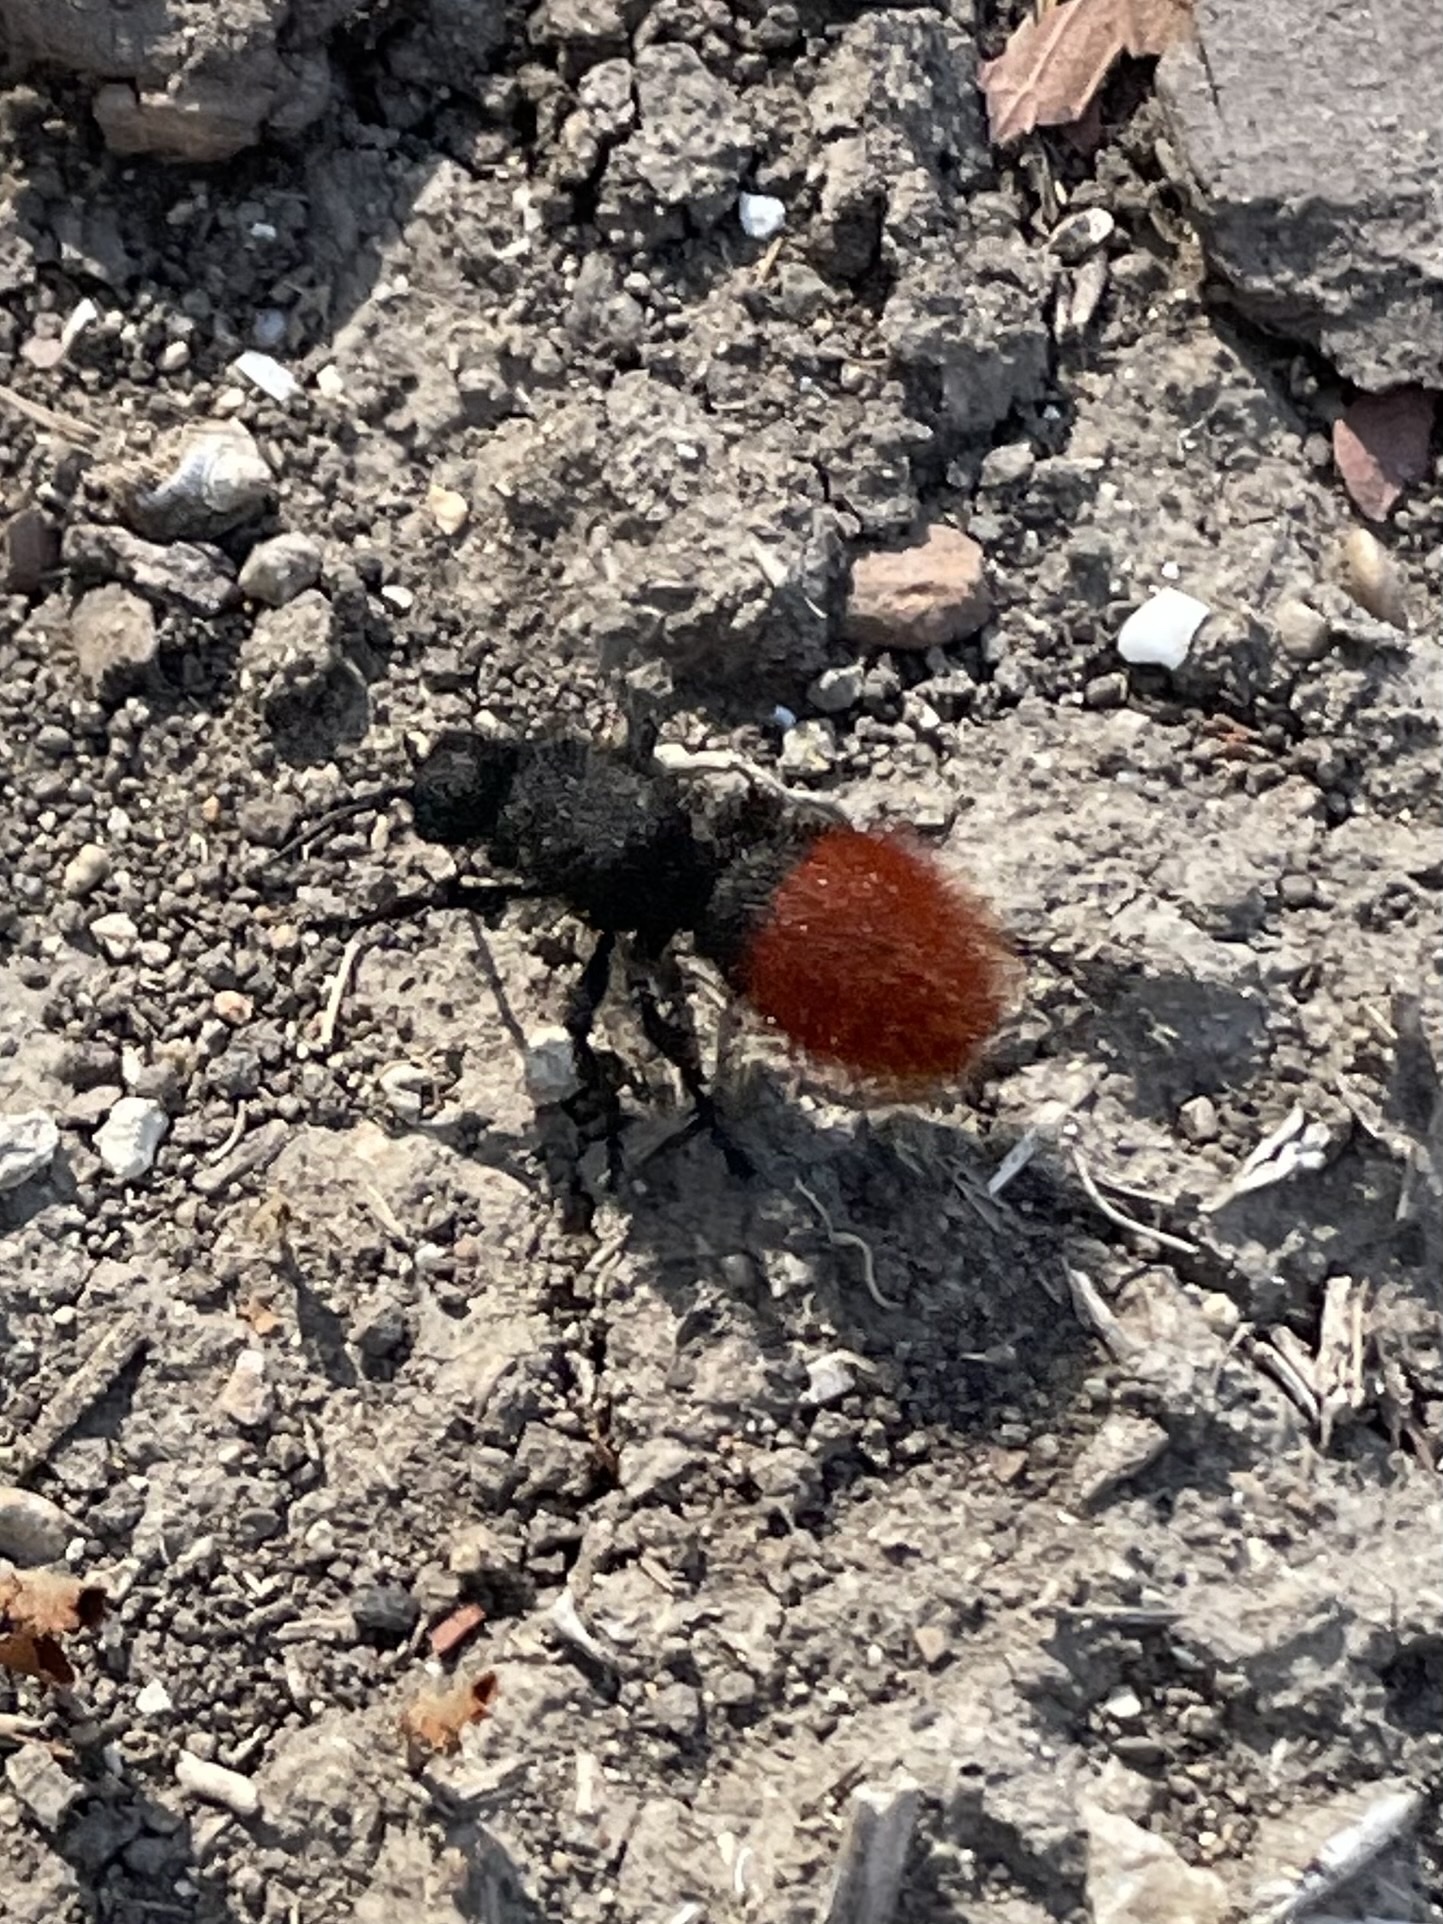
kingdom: Animalia
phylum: Arthropoda
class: Insecta
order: Hymenoptera
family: Mutillidae
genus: Dasymutilla
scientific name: Dasymutilla
